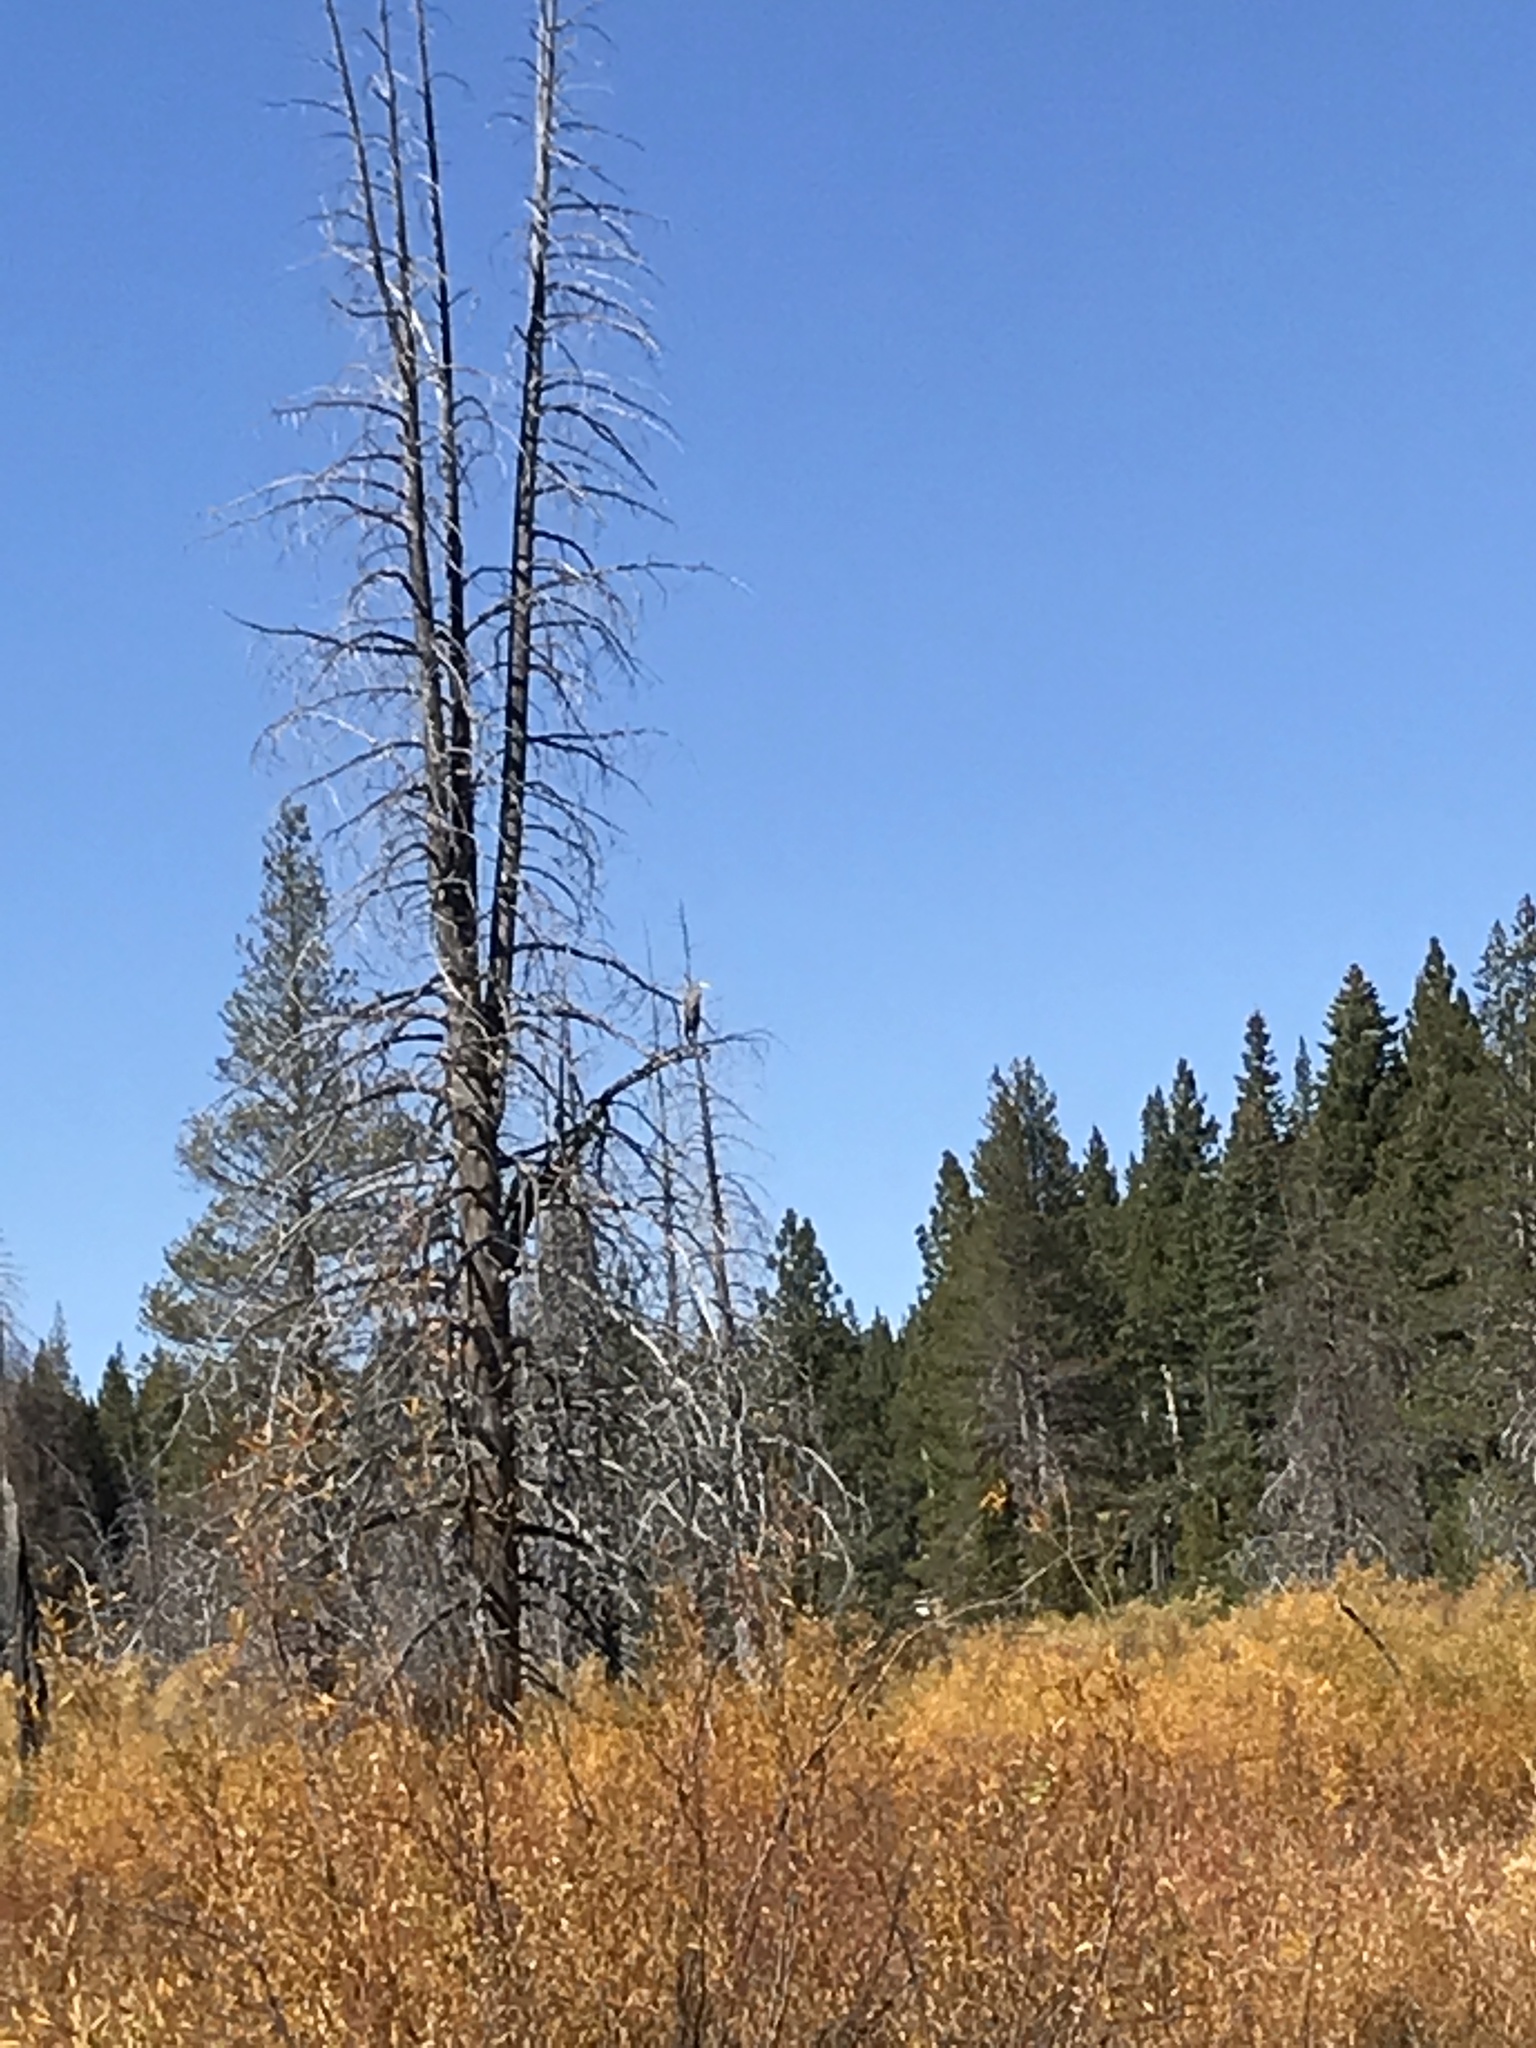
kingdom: Animalia
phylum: Chordata
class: Aves
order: Pelecaniformes
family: Ardeidae
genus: Ardea
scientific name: Ardea herodias
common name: Great blue heron
